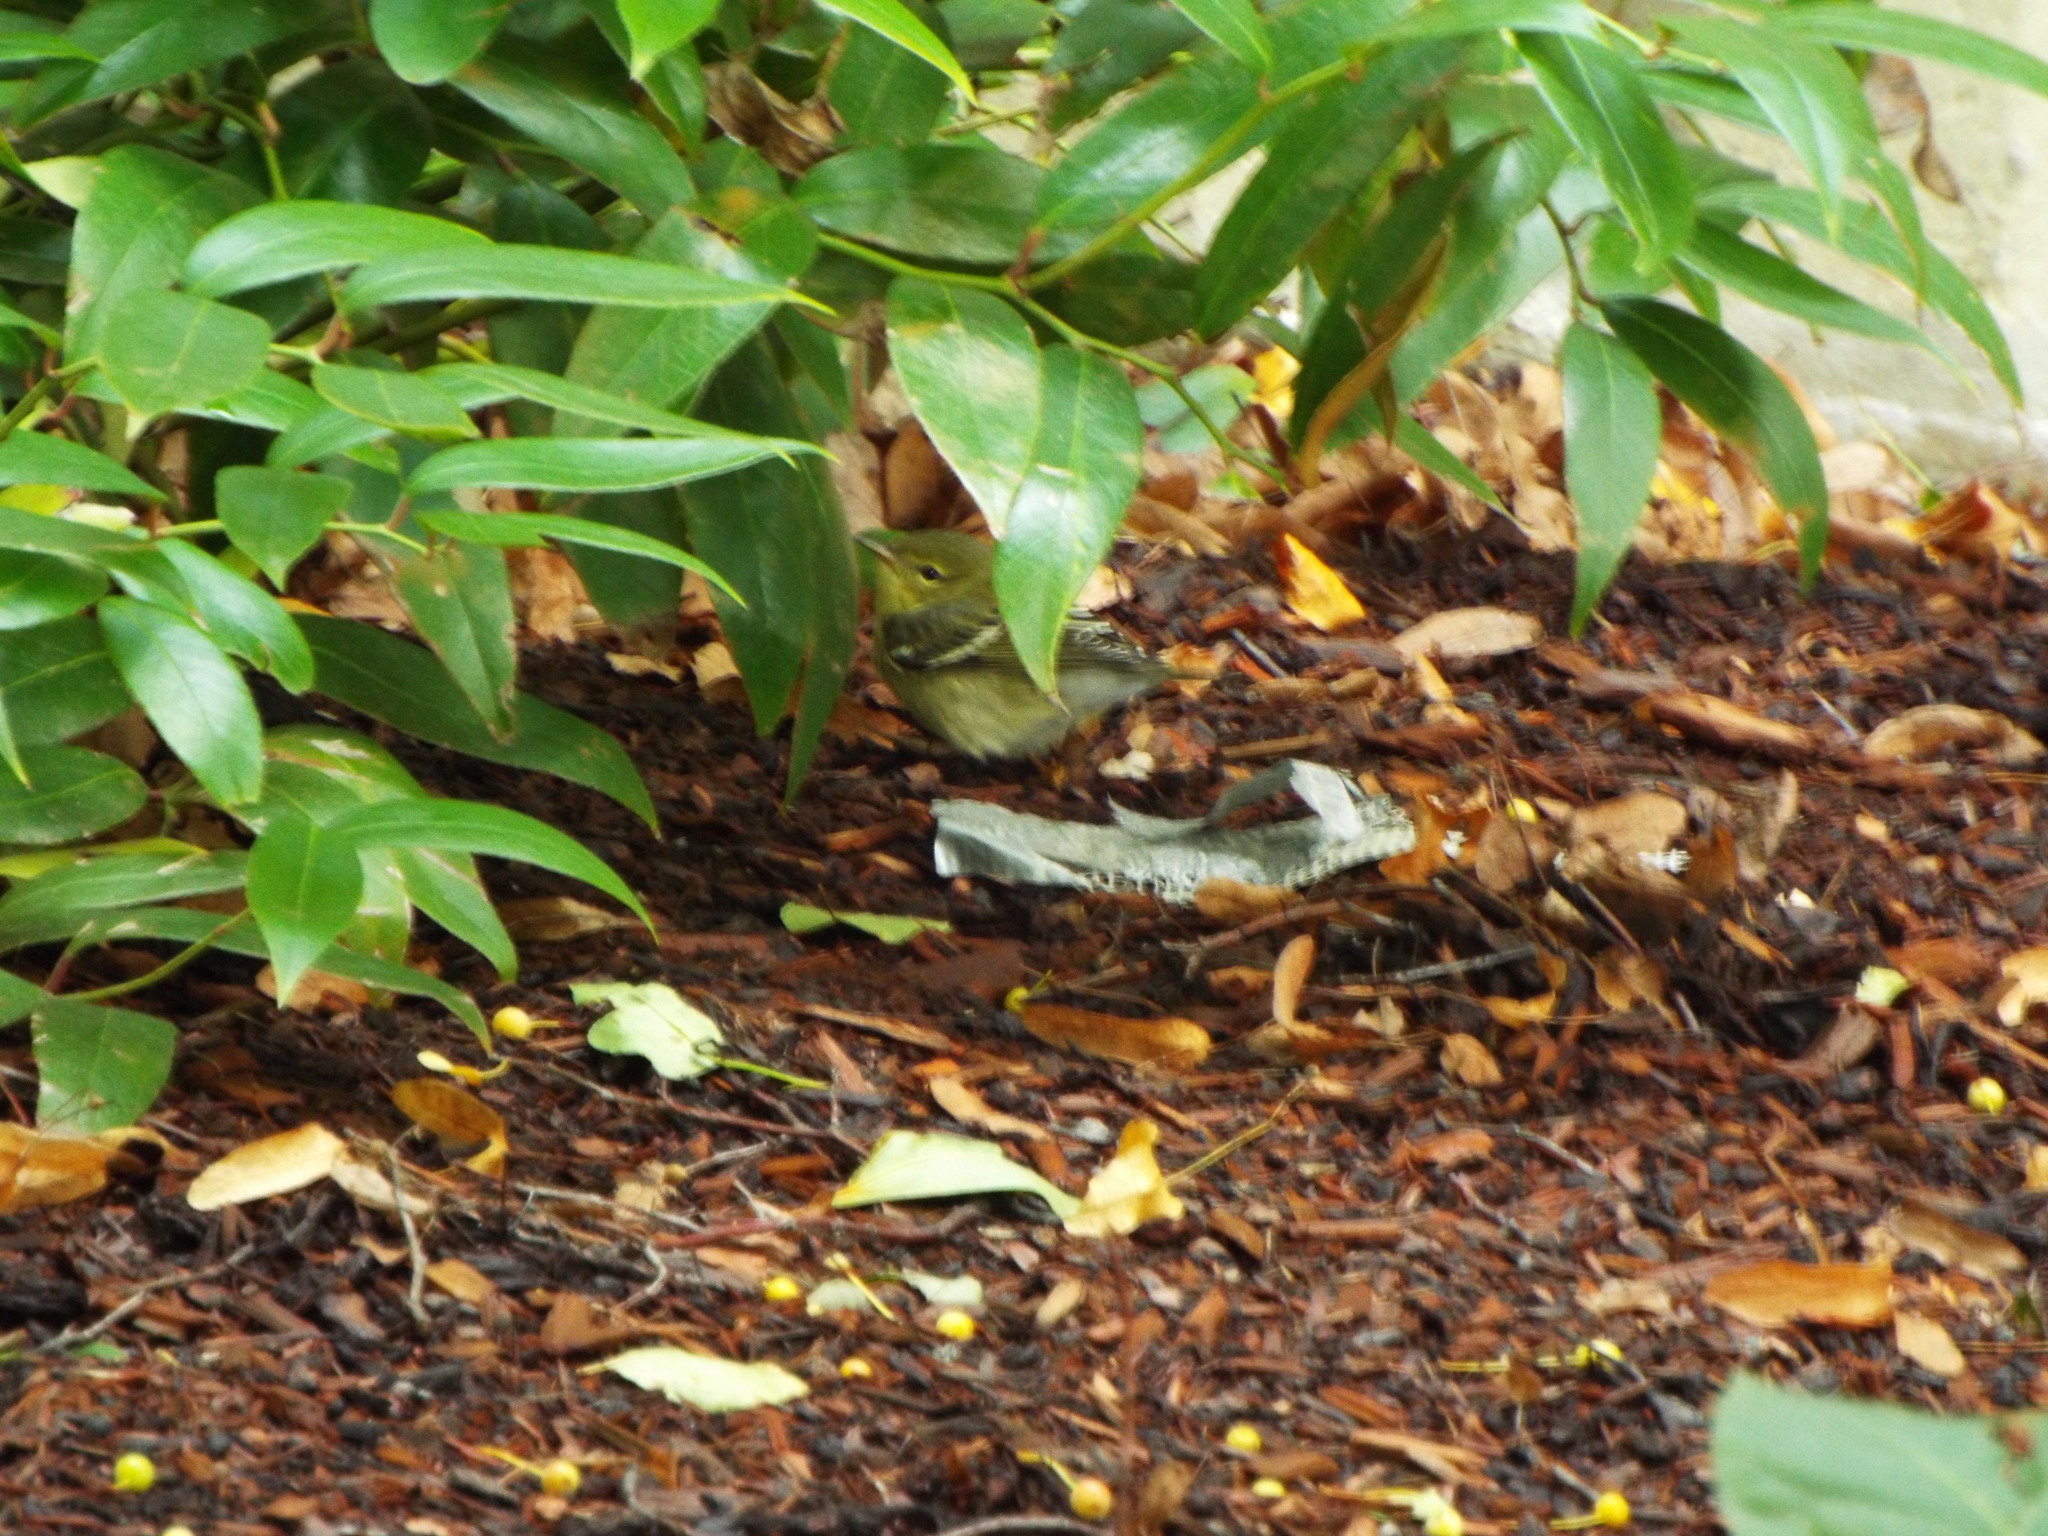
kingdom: Animalia
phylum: Chordata
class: Aves
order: Passeriformes
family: Parulidae
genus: Setophaga
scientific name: Setophaga striata
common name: Blackpoll warbler
